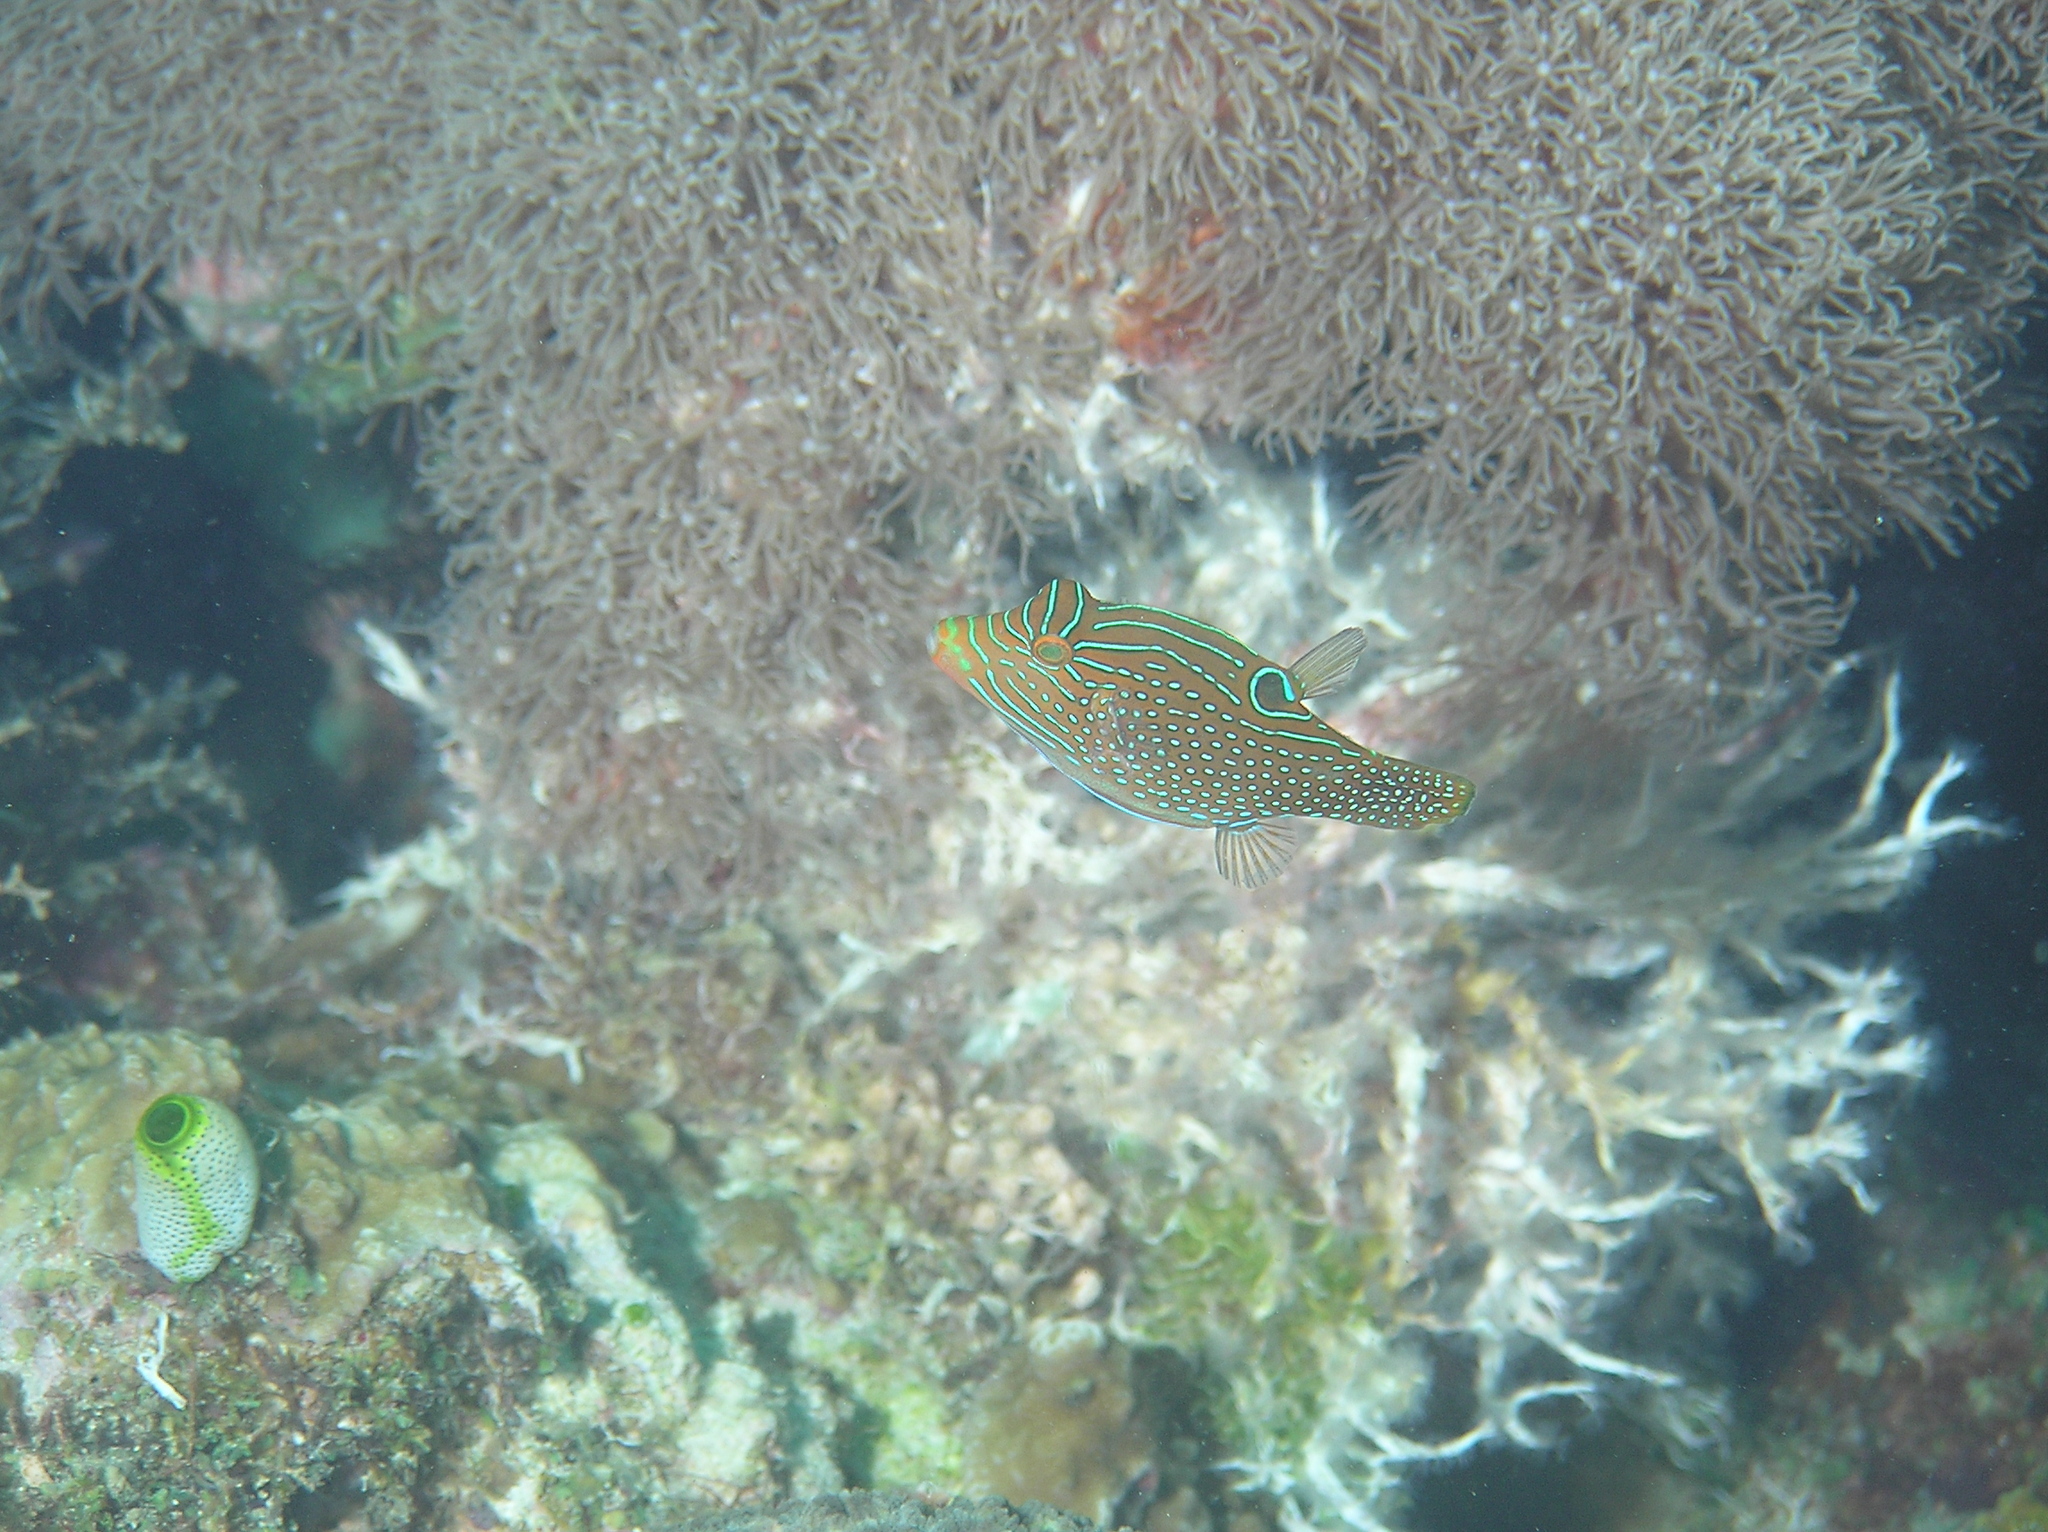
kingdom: Animalia
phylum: Chordata
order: Tetraodontiformes
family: Tetraodontidae
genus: Canthigaster
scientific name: Canthigaster papua
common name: False-eyed pufferfish
